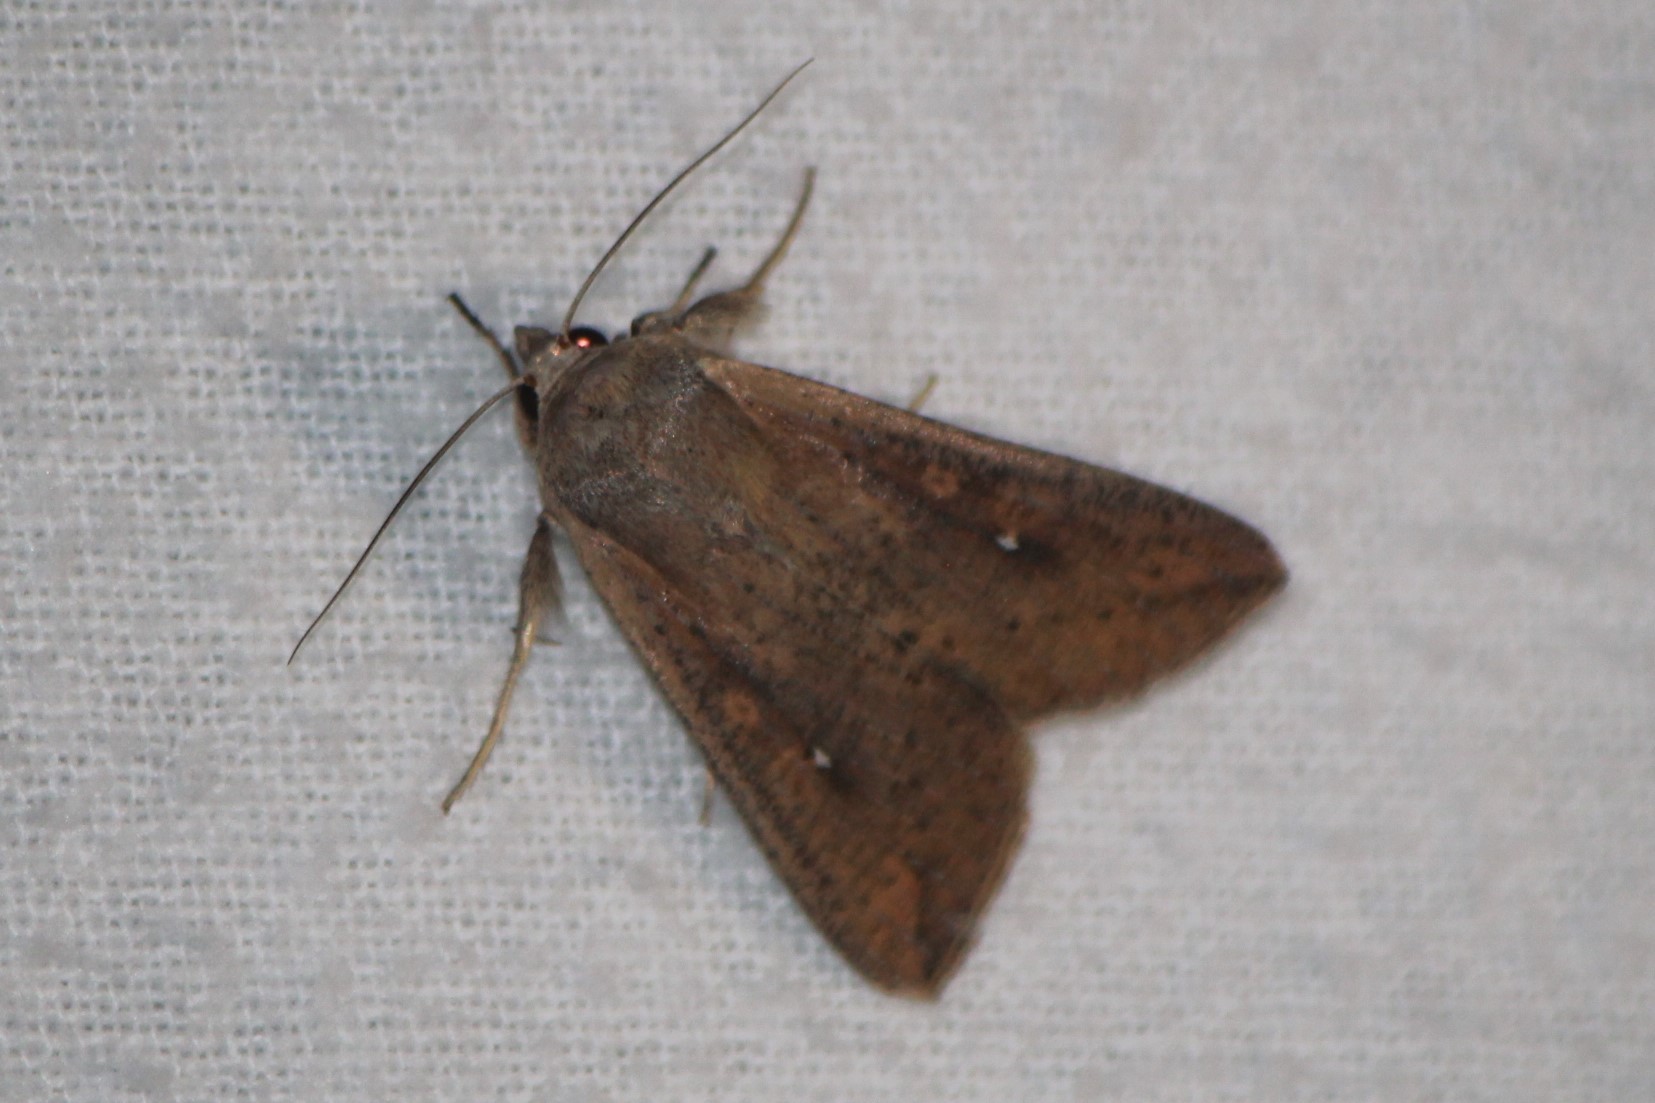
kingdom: Animalia
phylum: Arthropoda
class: Insecta
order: Lepidoptera
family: Noctuidae
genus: Mythimna
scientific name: Mythimna unipuncta
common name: White-speck
